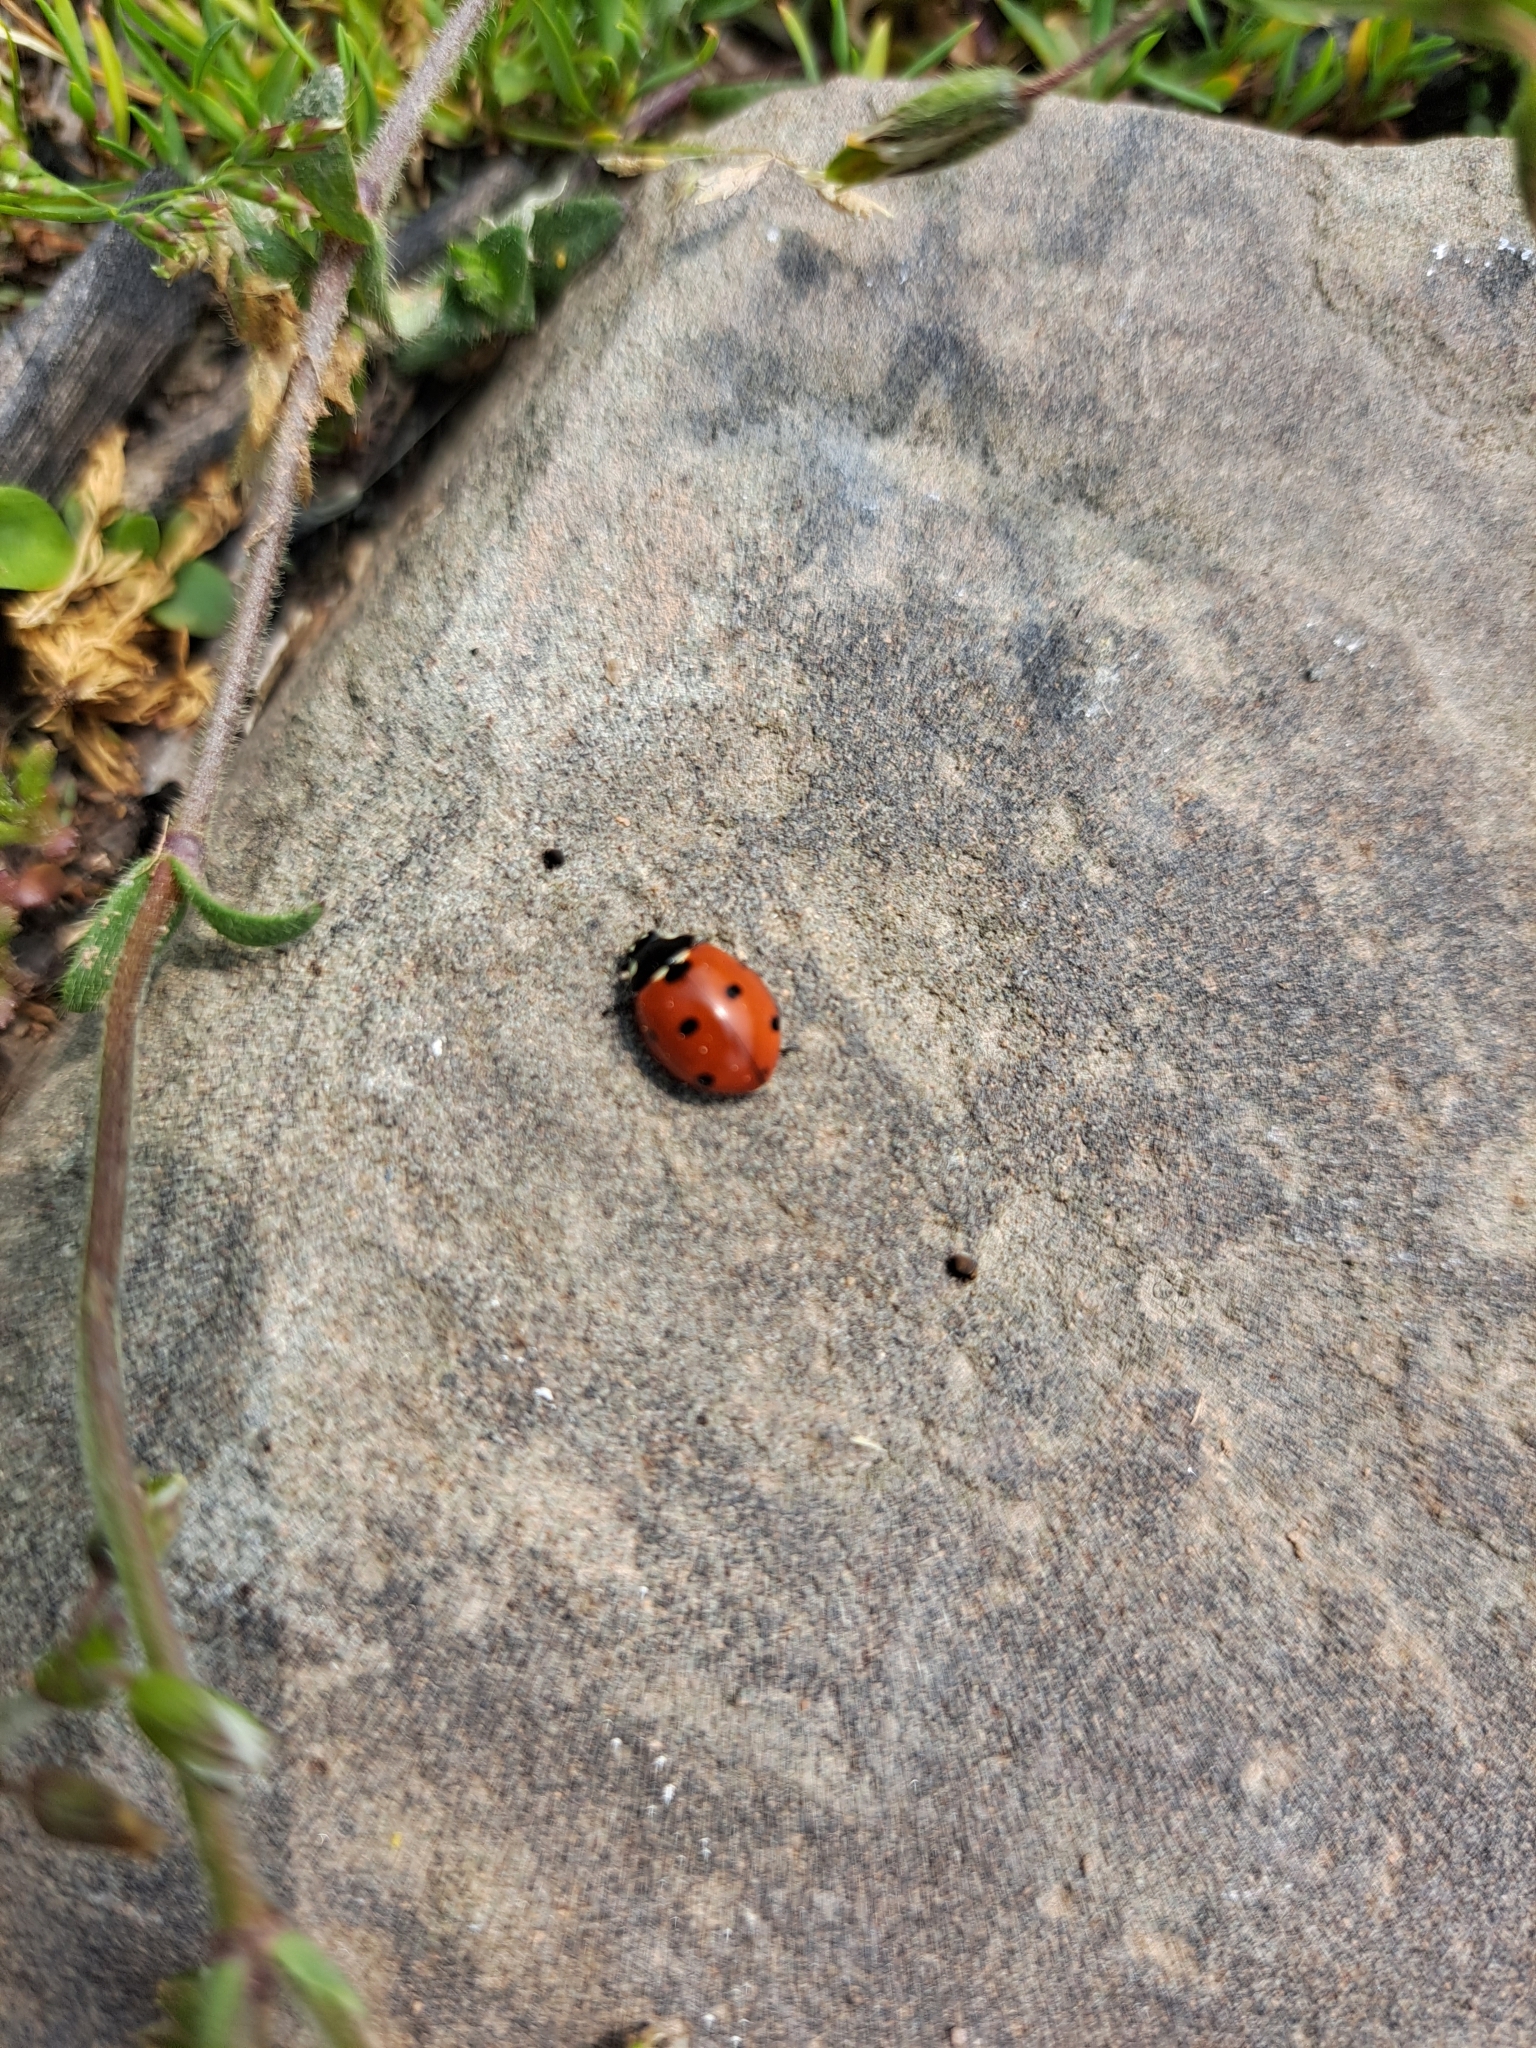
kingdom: Animalia
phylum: Arthropoda
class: Insecta
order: Coleoptera
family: Coccinellidae
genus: Coccinella
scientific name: Coccinella septempunctata
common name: Sevenspotted lady beetle
